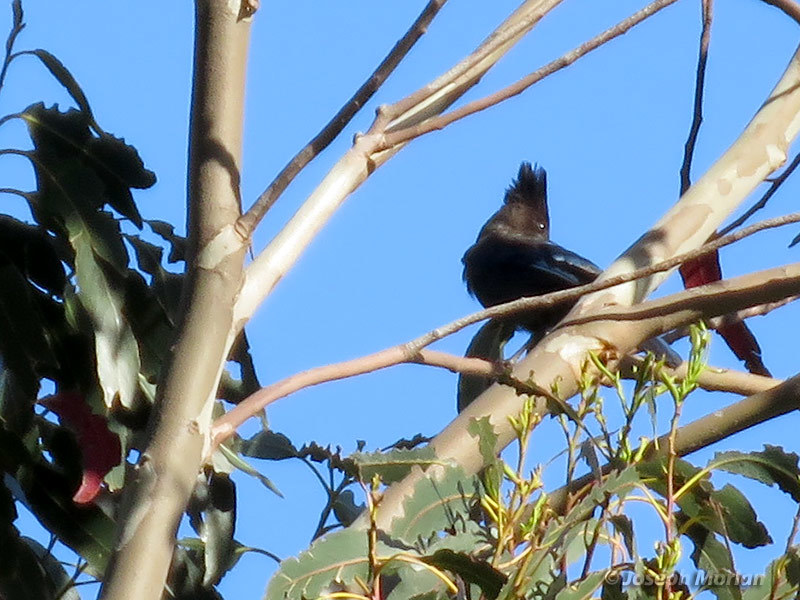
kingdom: Animalia
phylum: Chordata
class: Aves
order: Passeriformes
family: Corvidae
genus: Cyanocitta
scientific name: Cyanocitta stelleri
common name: Steller's jay
